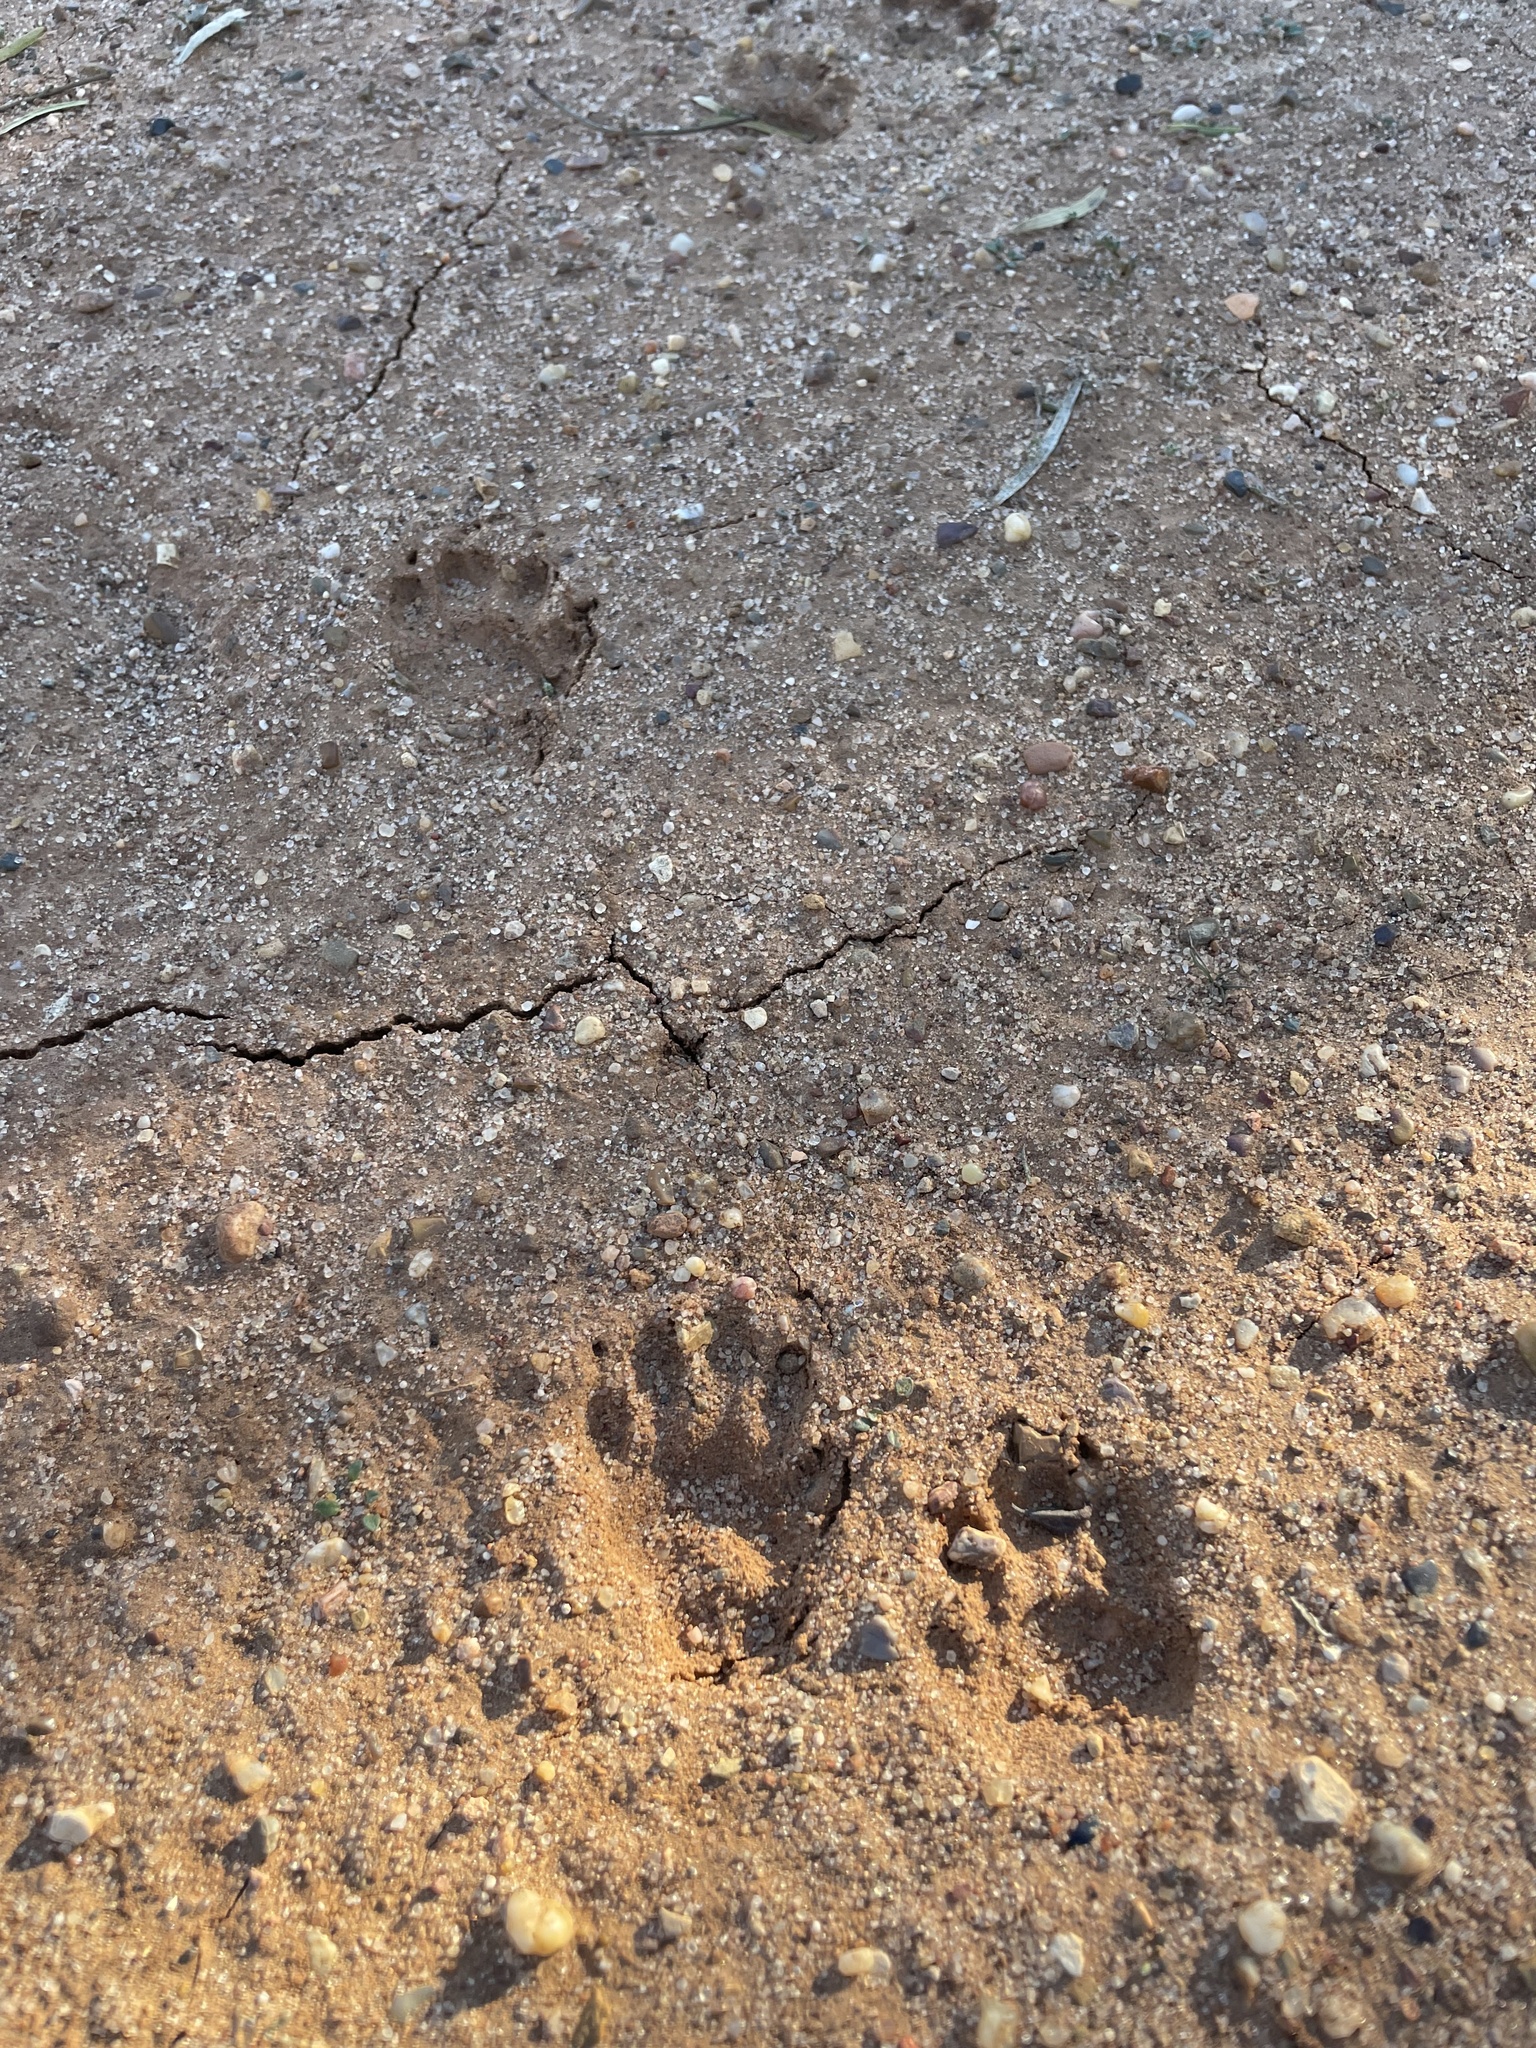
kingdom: Animalia
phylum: Chordata
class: Mammalia
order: Carnivora
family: Procyonidae
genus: Procyon
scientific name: Procyon lotor
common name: Raccoon
